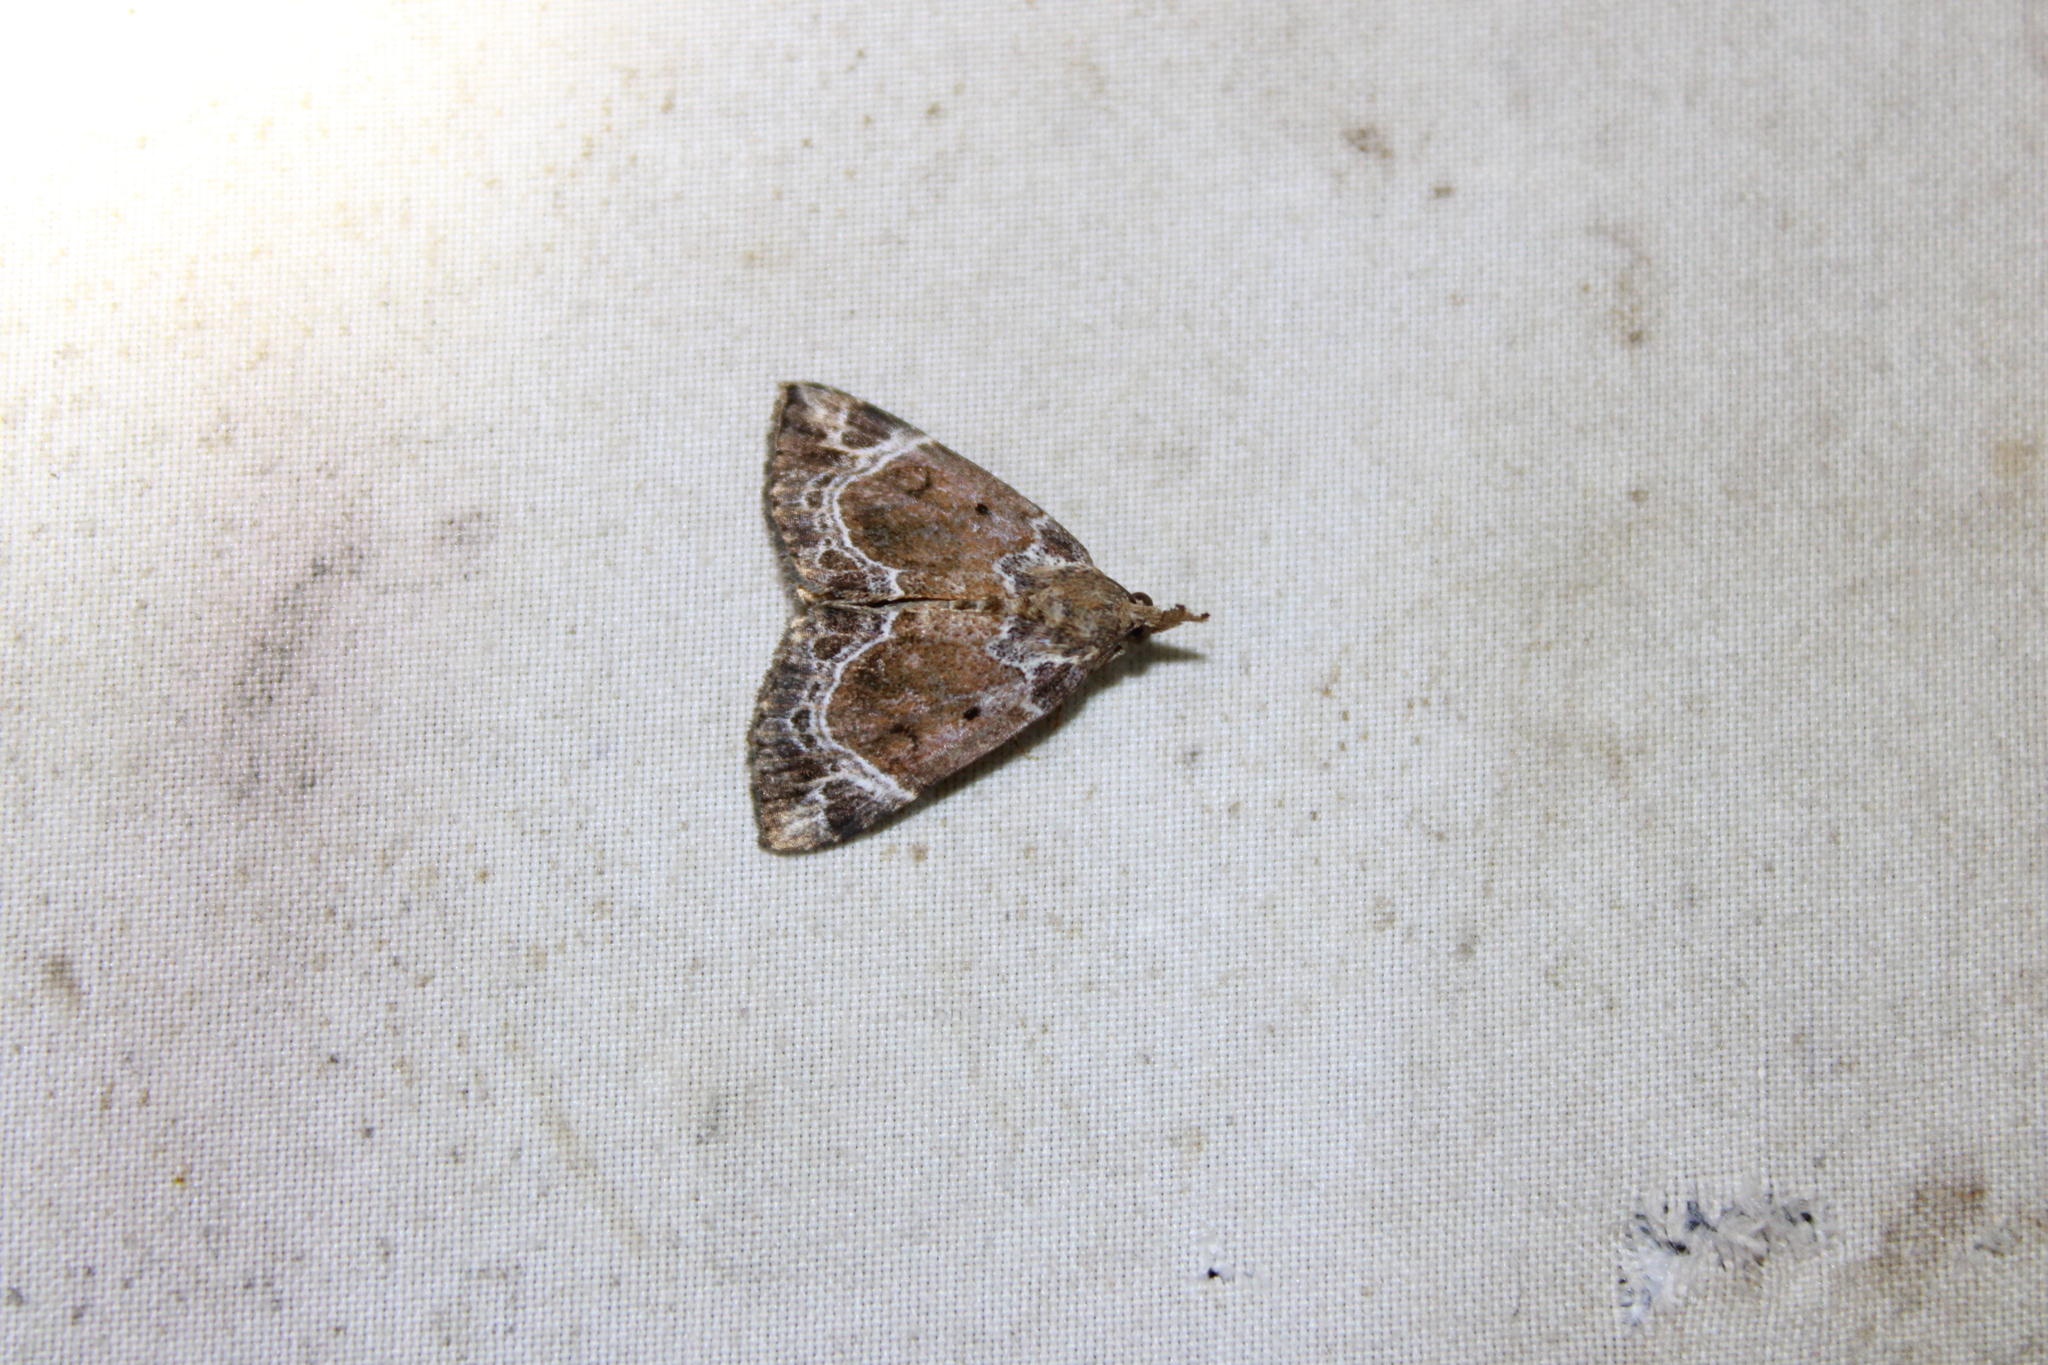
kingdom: Animalia
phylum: Arthropoda
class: Insecta
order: Lepidoptera
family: Erebidae
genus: Hypena
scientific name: Hypena abalienalis
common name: White-lined snout
